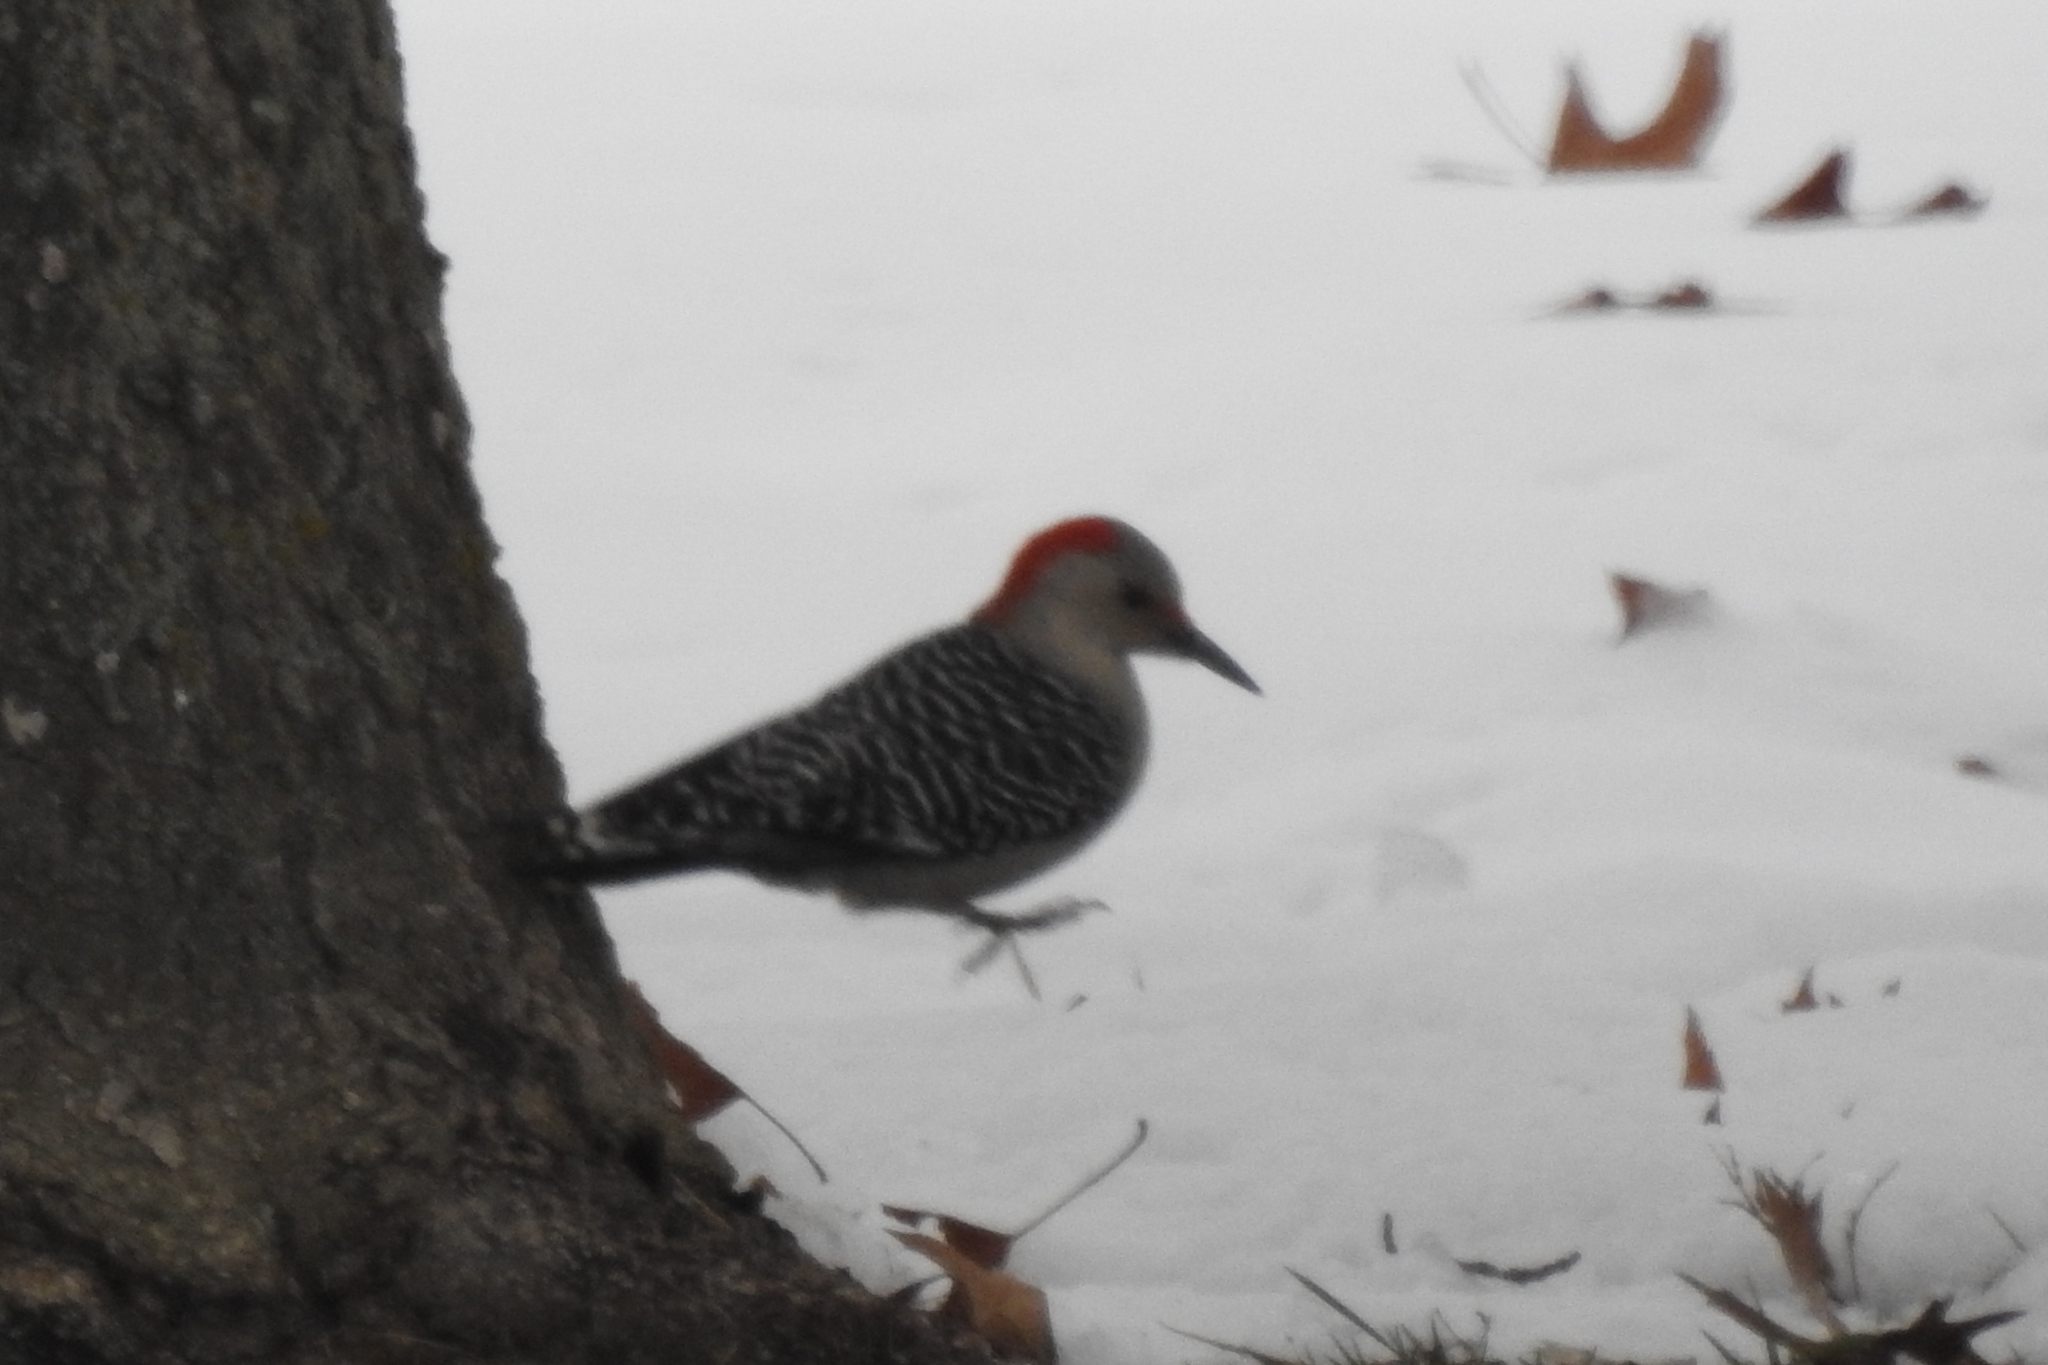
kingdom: Animalia
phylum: Chordata
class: Aves
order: Piciformes
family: Picidae
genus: Melanerpes
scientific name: Melanerpes carolinus
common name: Red-bellied woodpecker
